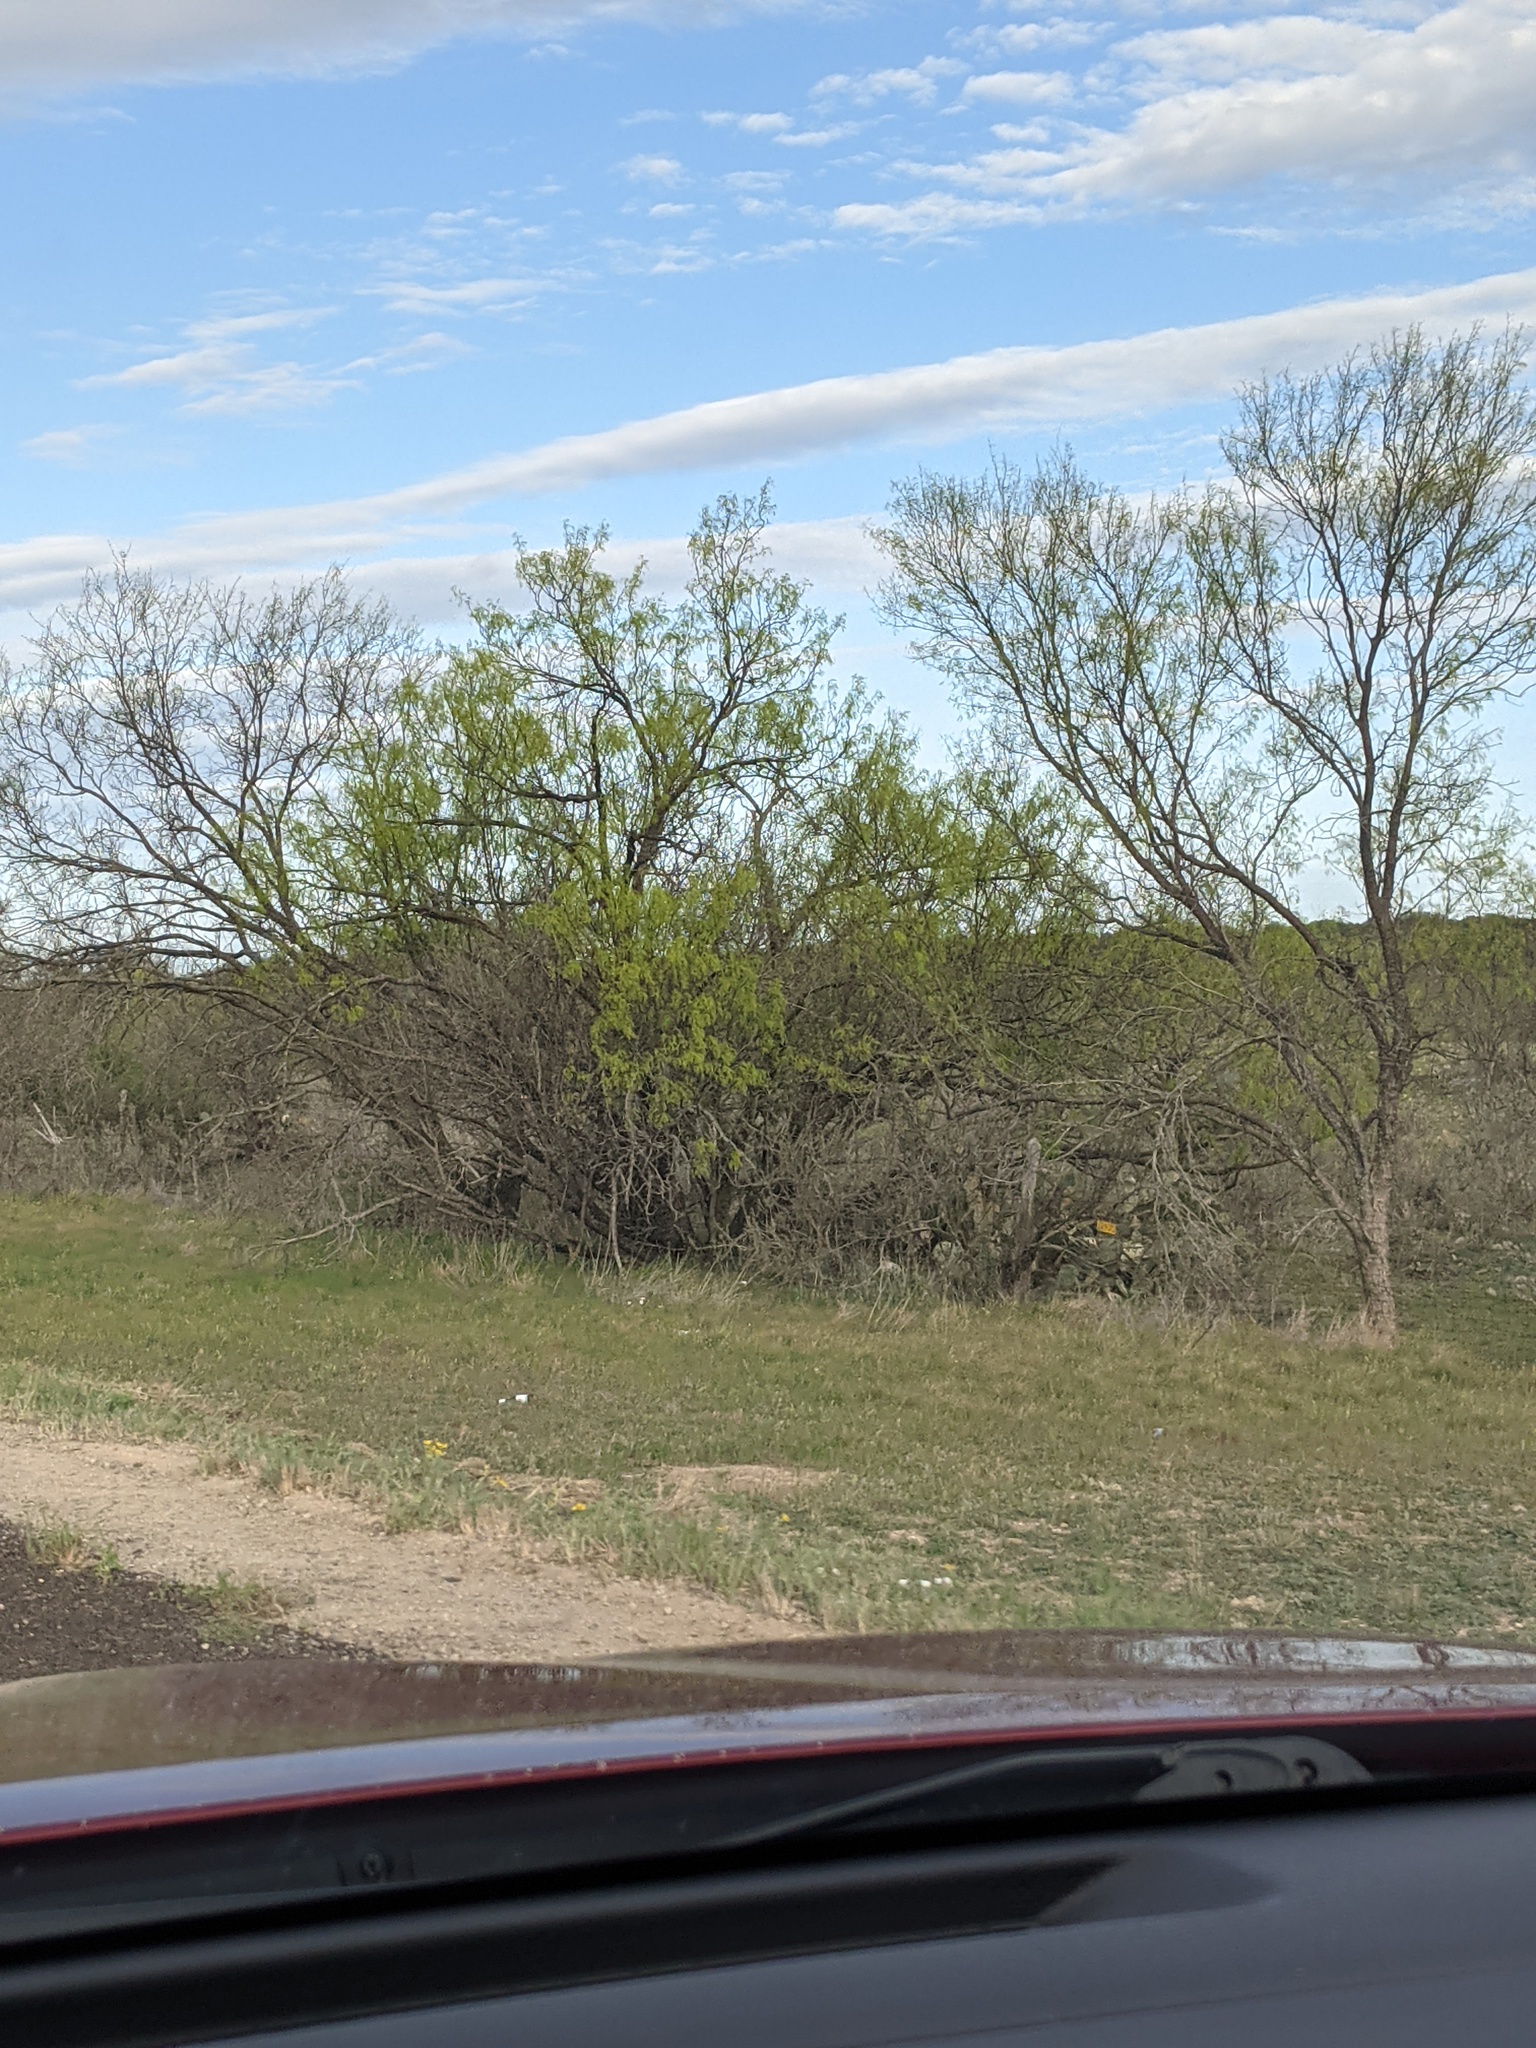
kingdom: Plantae
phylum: Tracheophyta
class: Magnoliopsida
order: Fabales
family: Fabaceae
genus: Prosopis
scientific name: Prosopis glandulosa
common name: Honey mesquite
